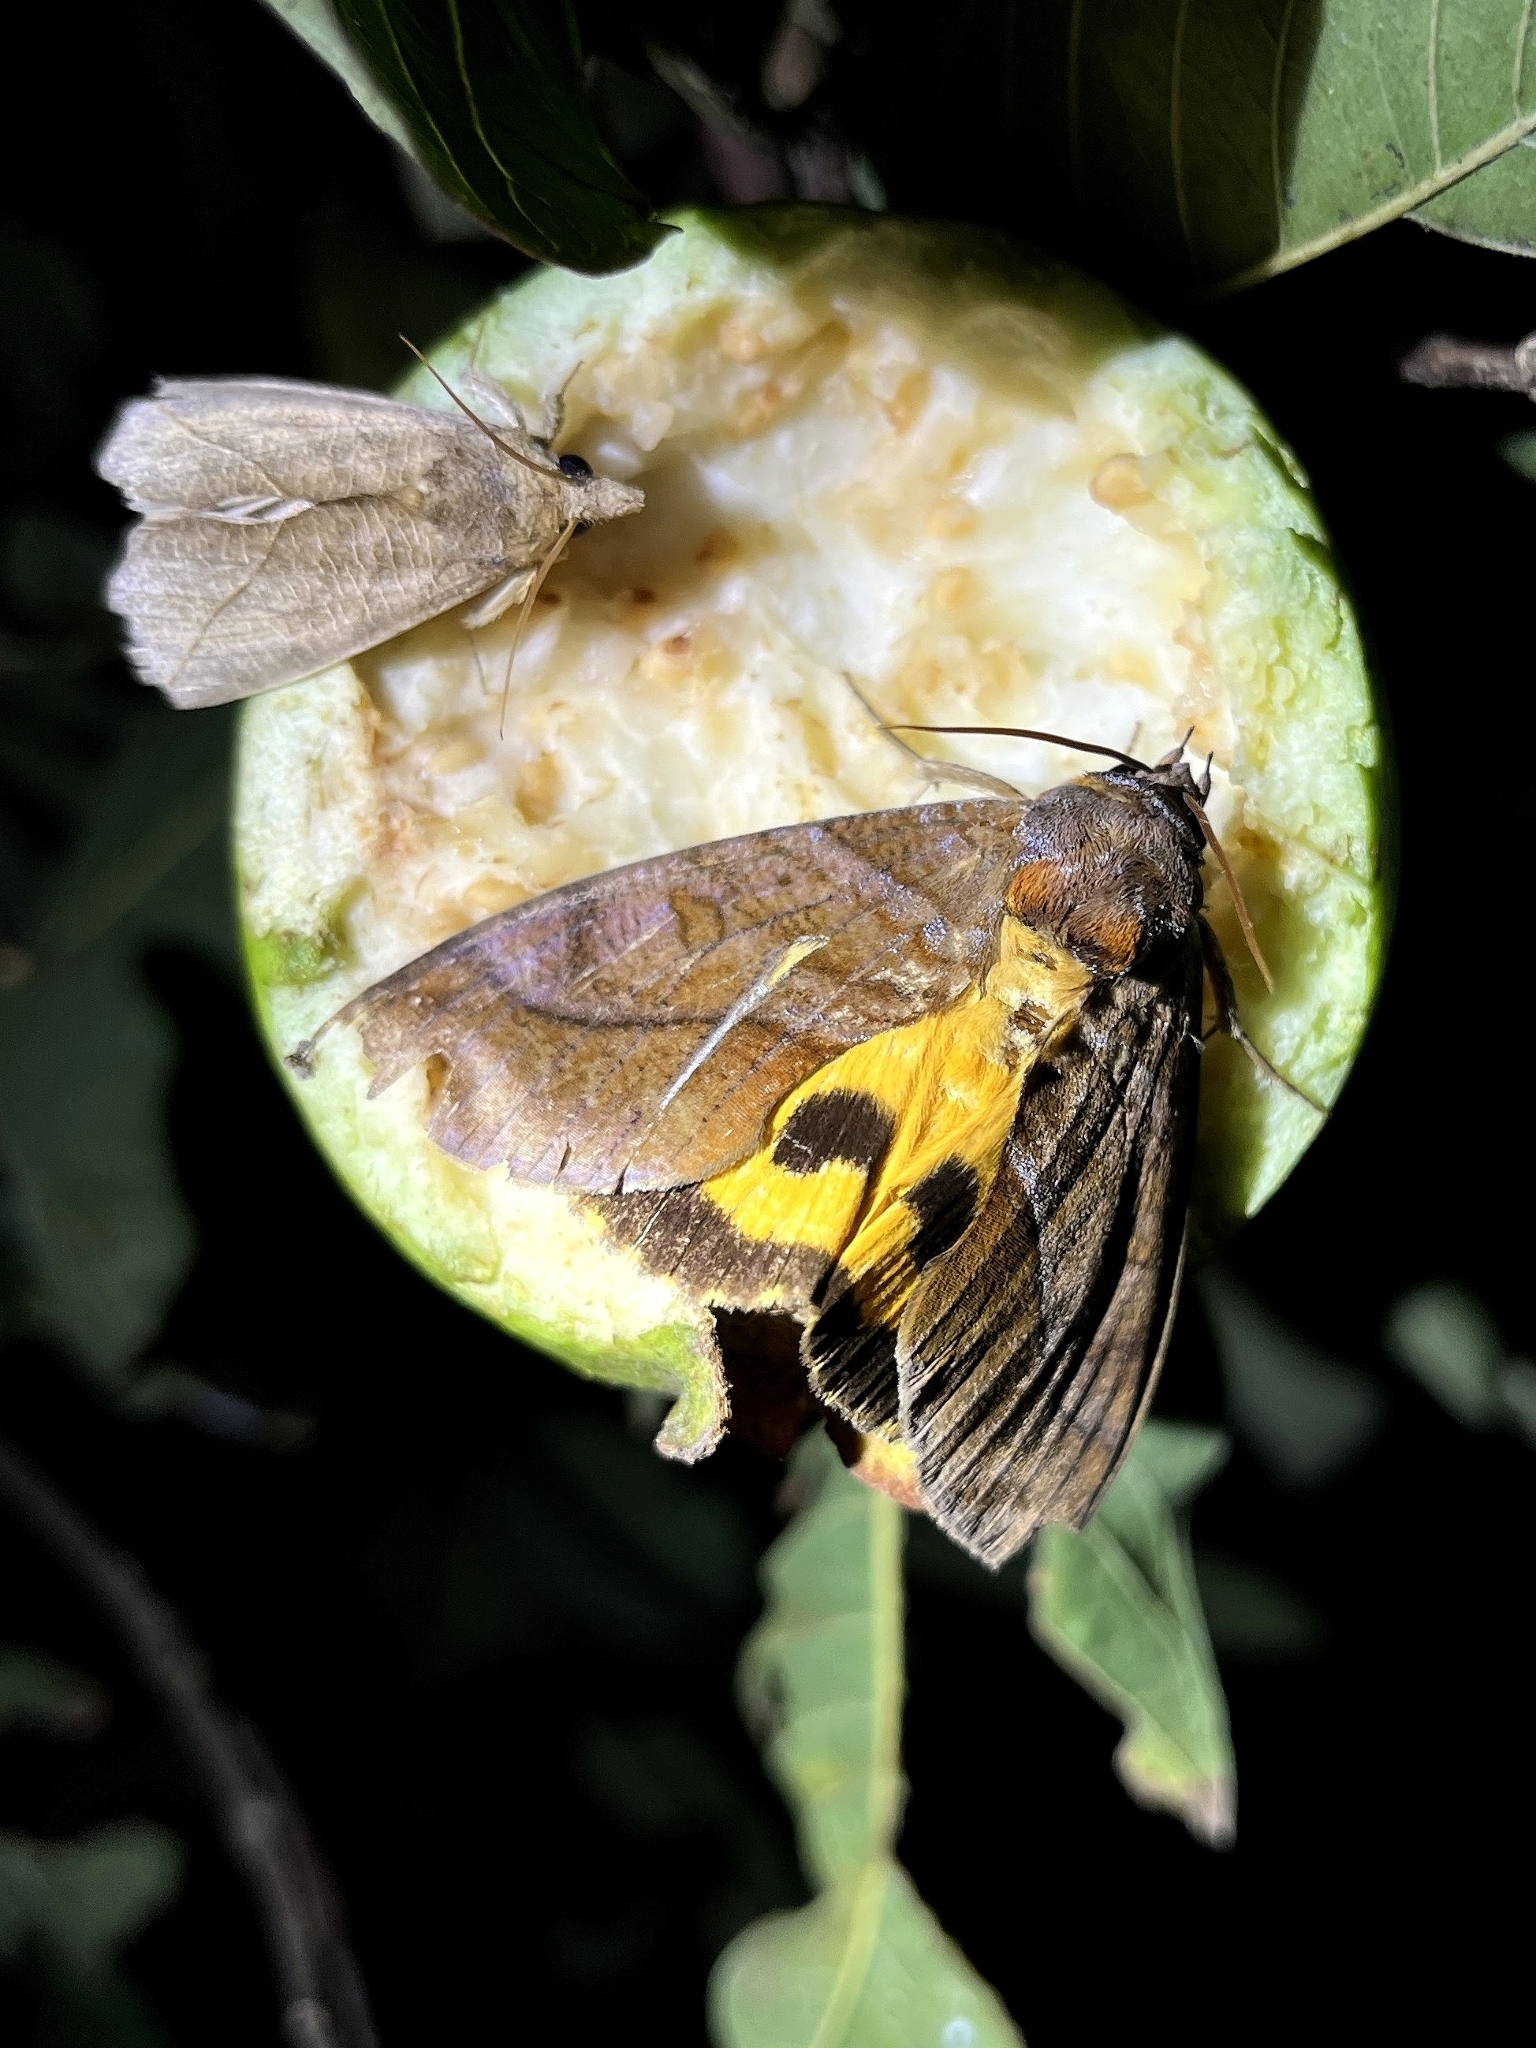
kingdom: Animalia
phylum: Arthropoda
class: Insecta
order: Lepidoptera
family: Erebidae
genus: Eudocima
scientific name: Eudocima homaena
